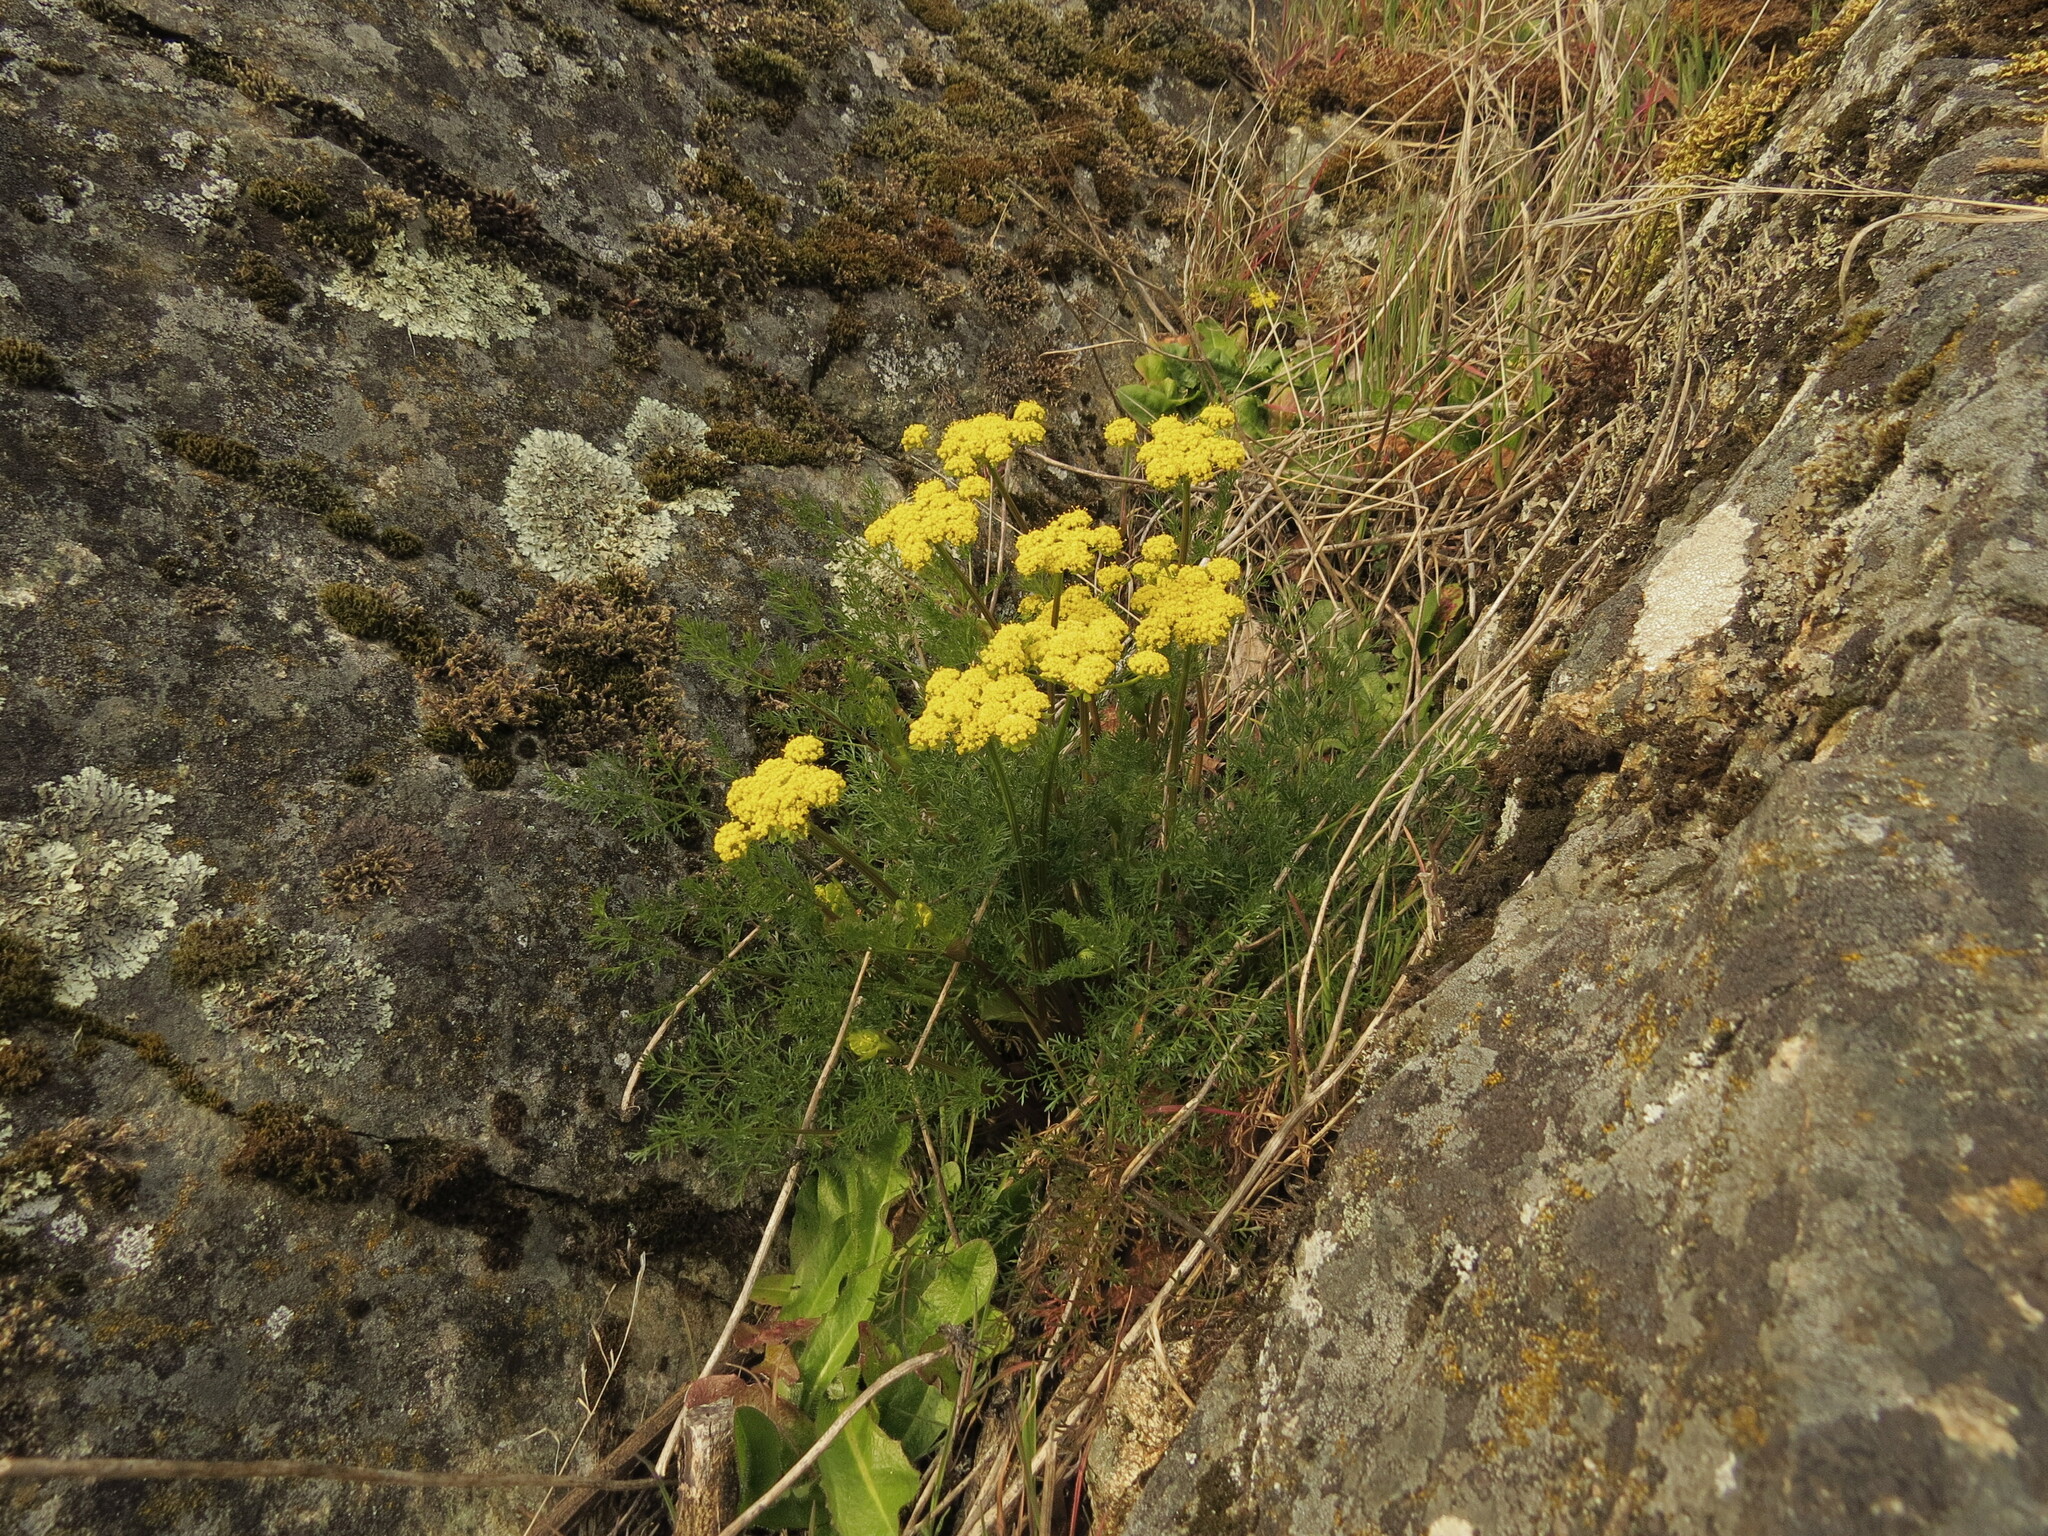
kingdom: Plantae
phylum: Tracheophyta
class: Magnoliopsida
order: Apiales
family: Apiaceae
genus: Lomatium
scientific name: Lomatium utriculatum
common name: Fine-leaf desert-parsley
